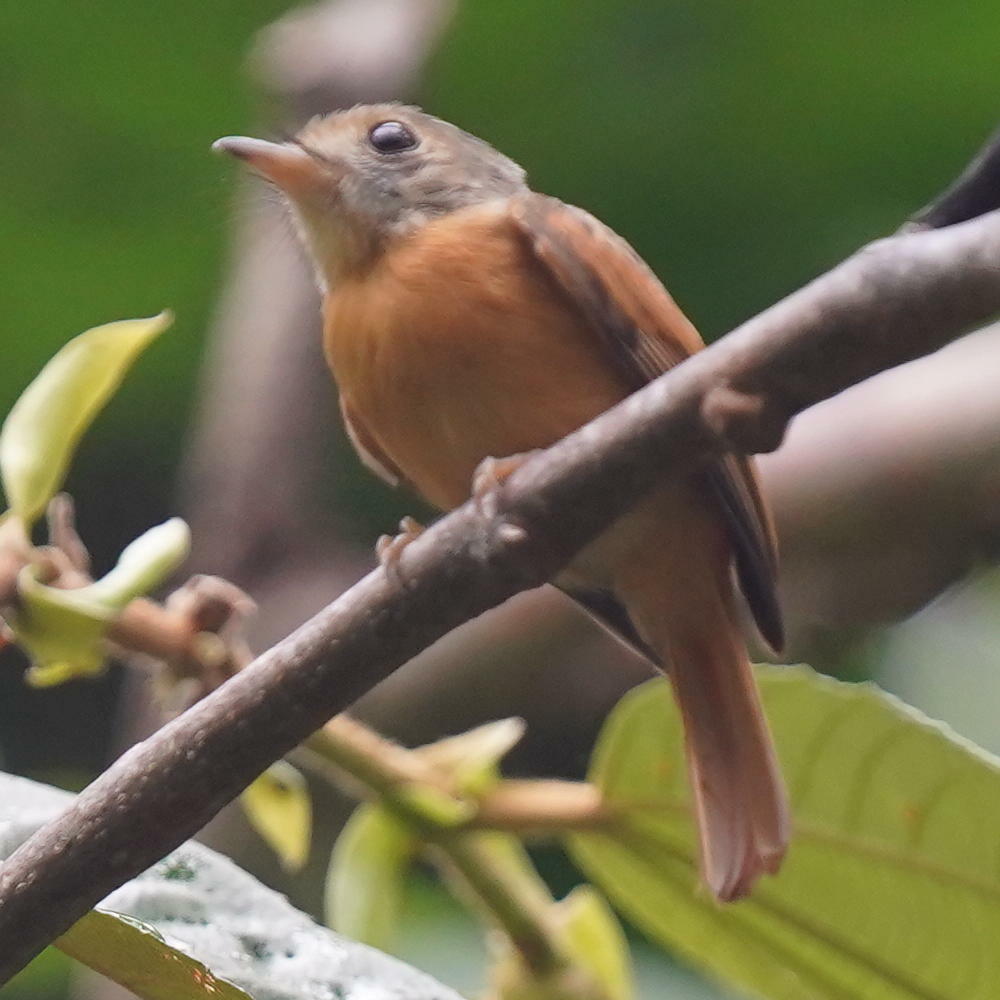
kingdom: Animalia
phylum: Chordata
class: Aves
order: Passeriformes
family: Tyrannidae
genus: Terenotriccus
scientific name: Terenotriccus erythrurus
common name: Ruddy-tailed flycatcher
